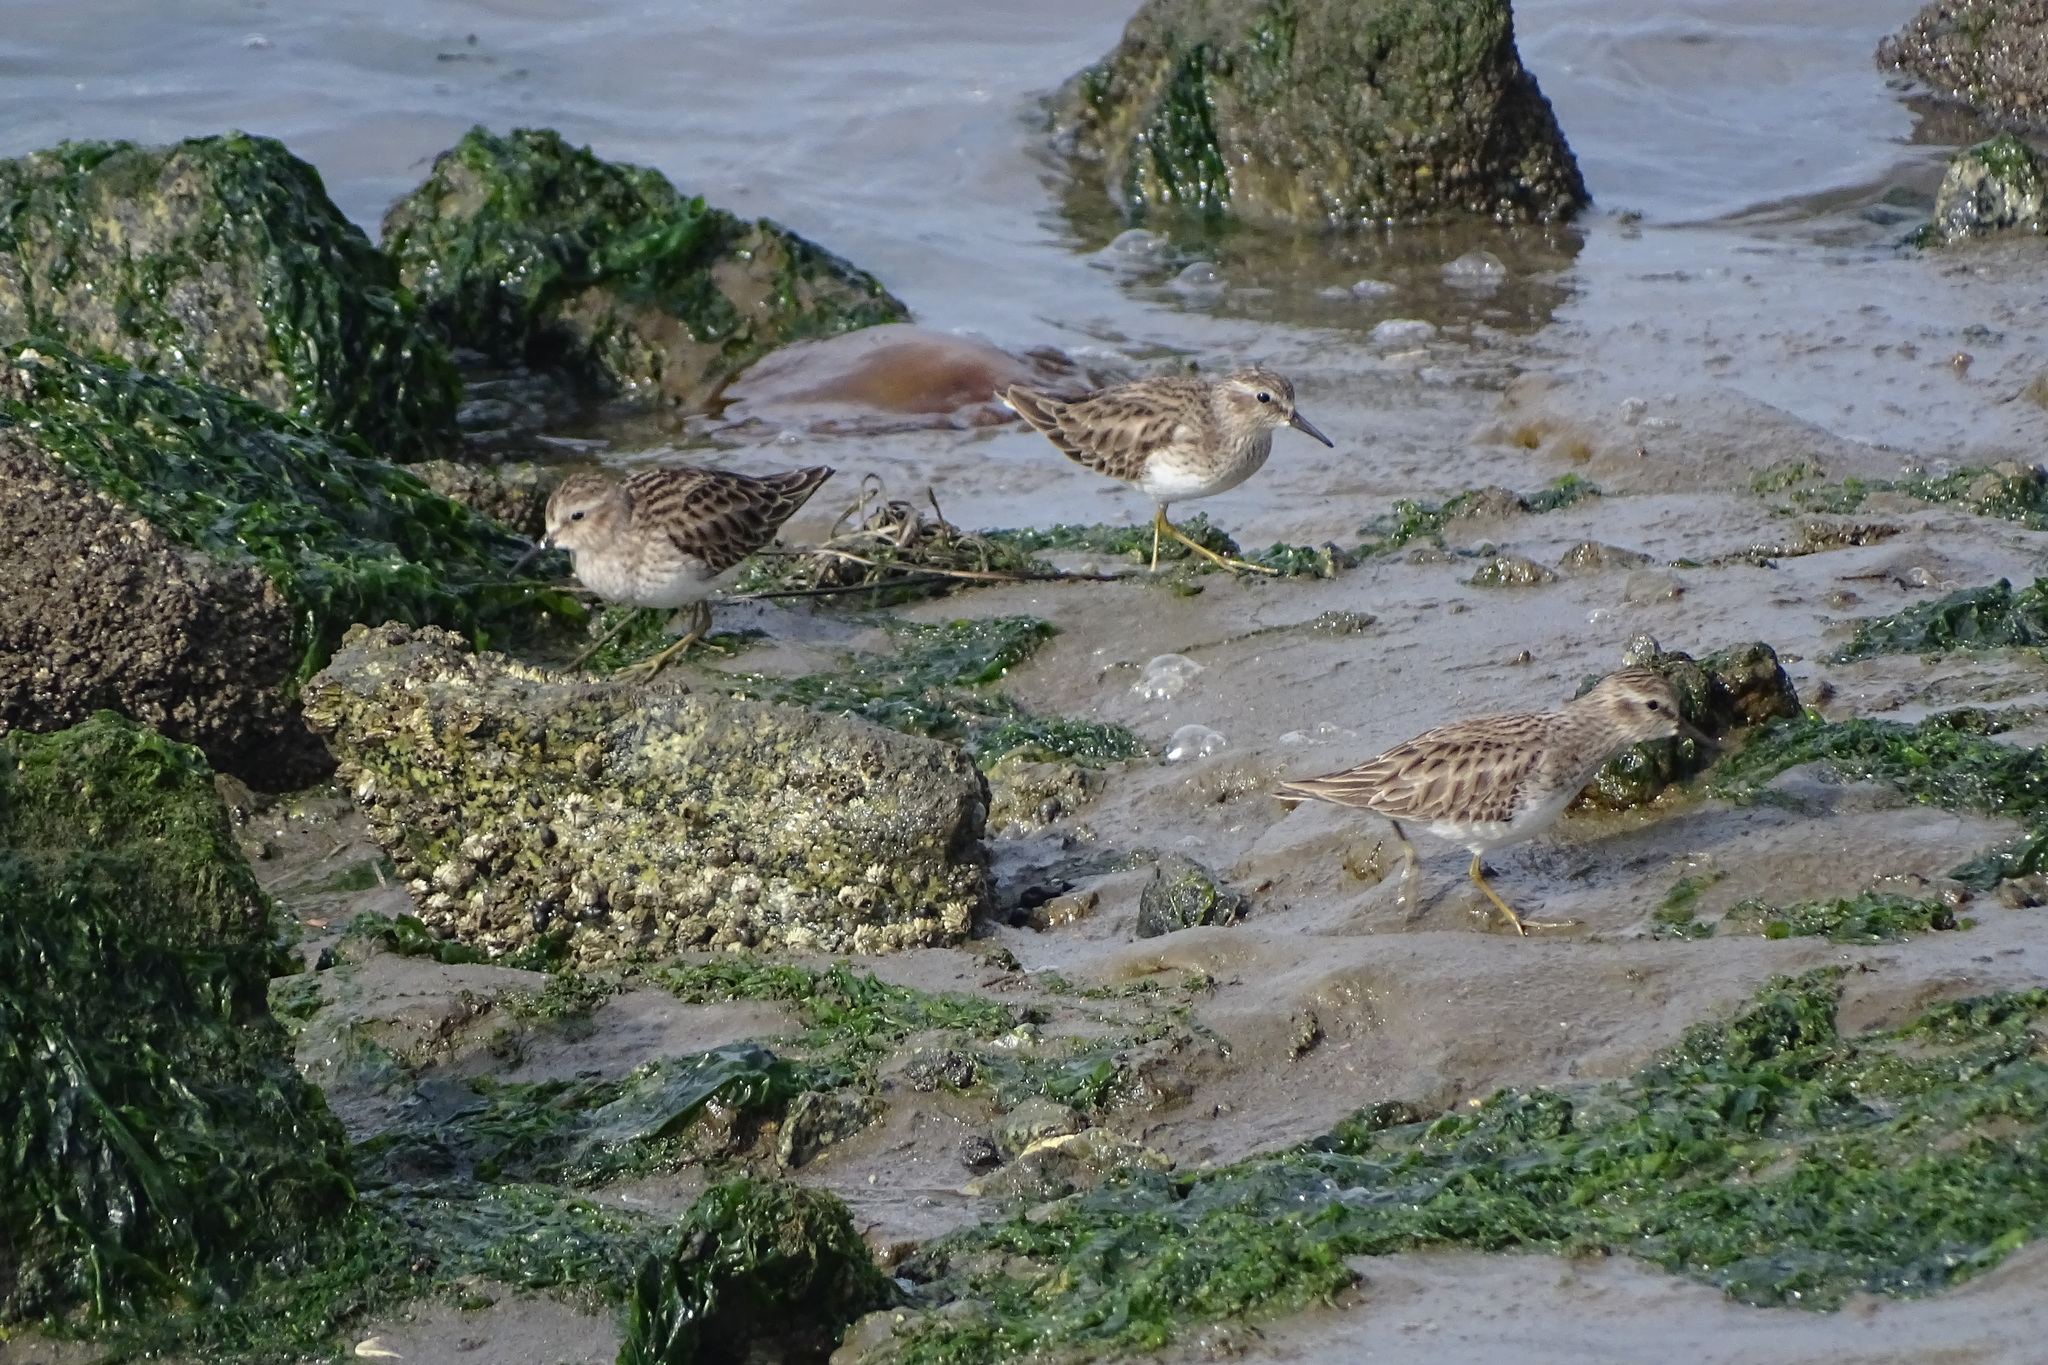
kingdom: Animalia
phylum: Chordata
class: Aves
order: Charadriiformes
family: Scolopacidae
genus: Calidris
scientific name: Calidris minutilla
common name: Least sandpiper
